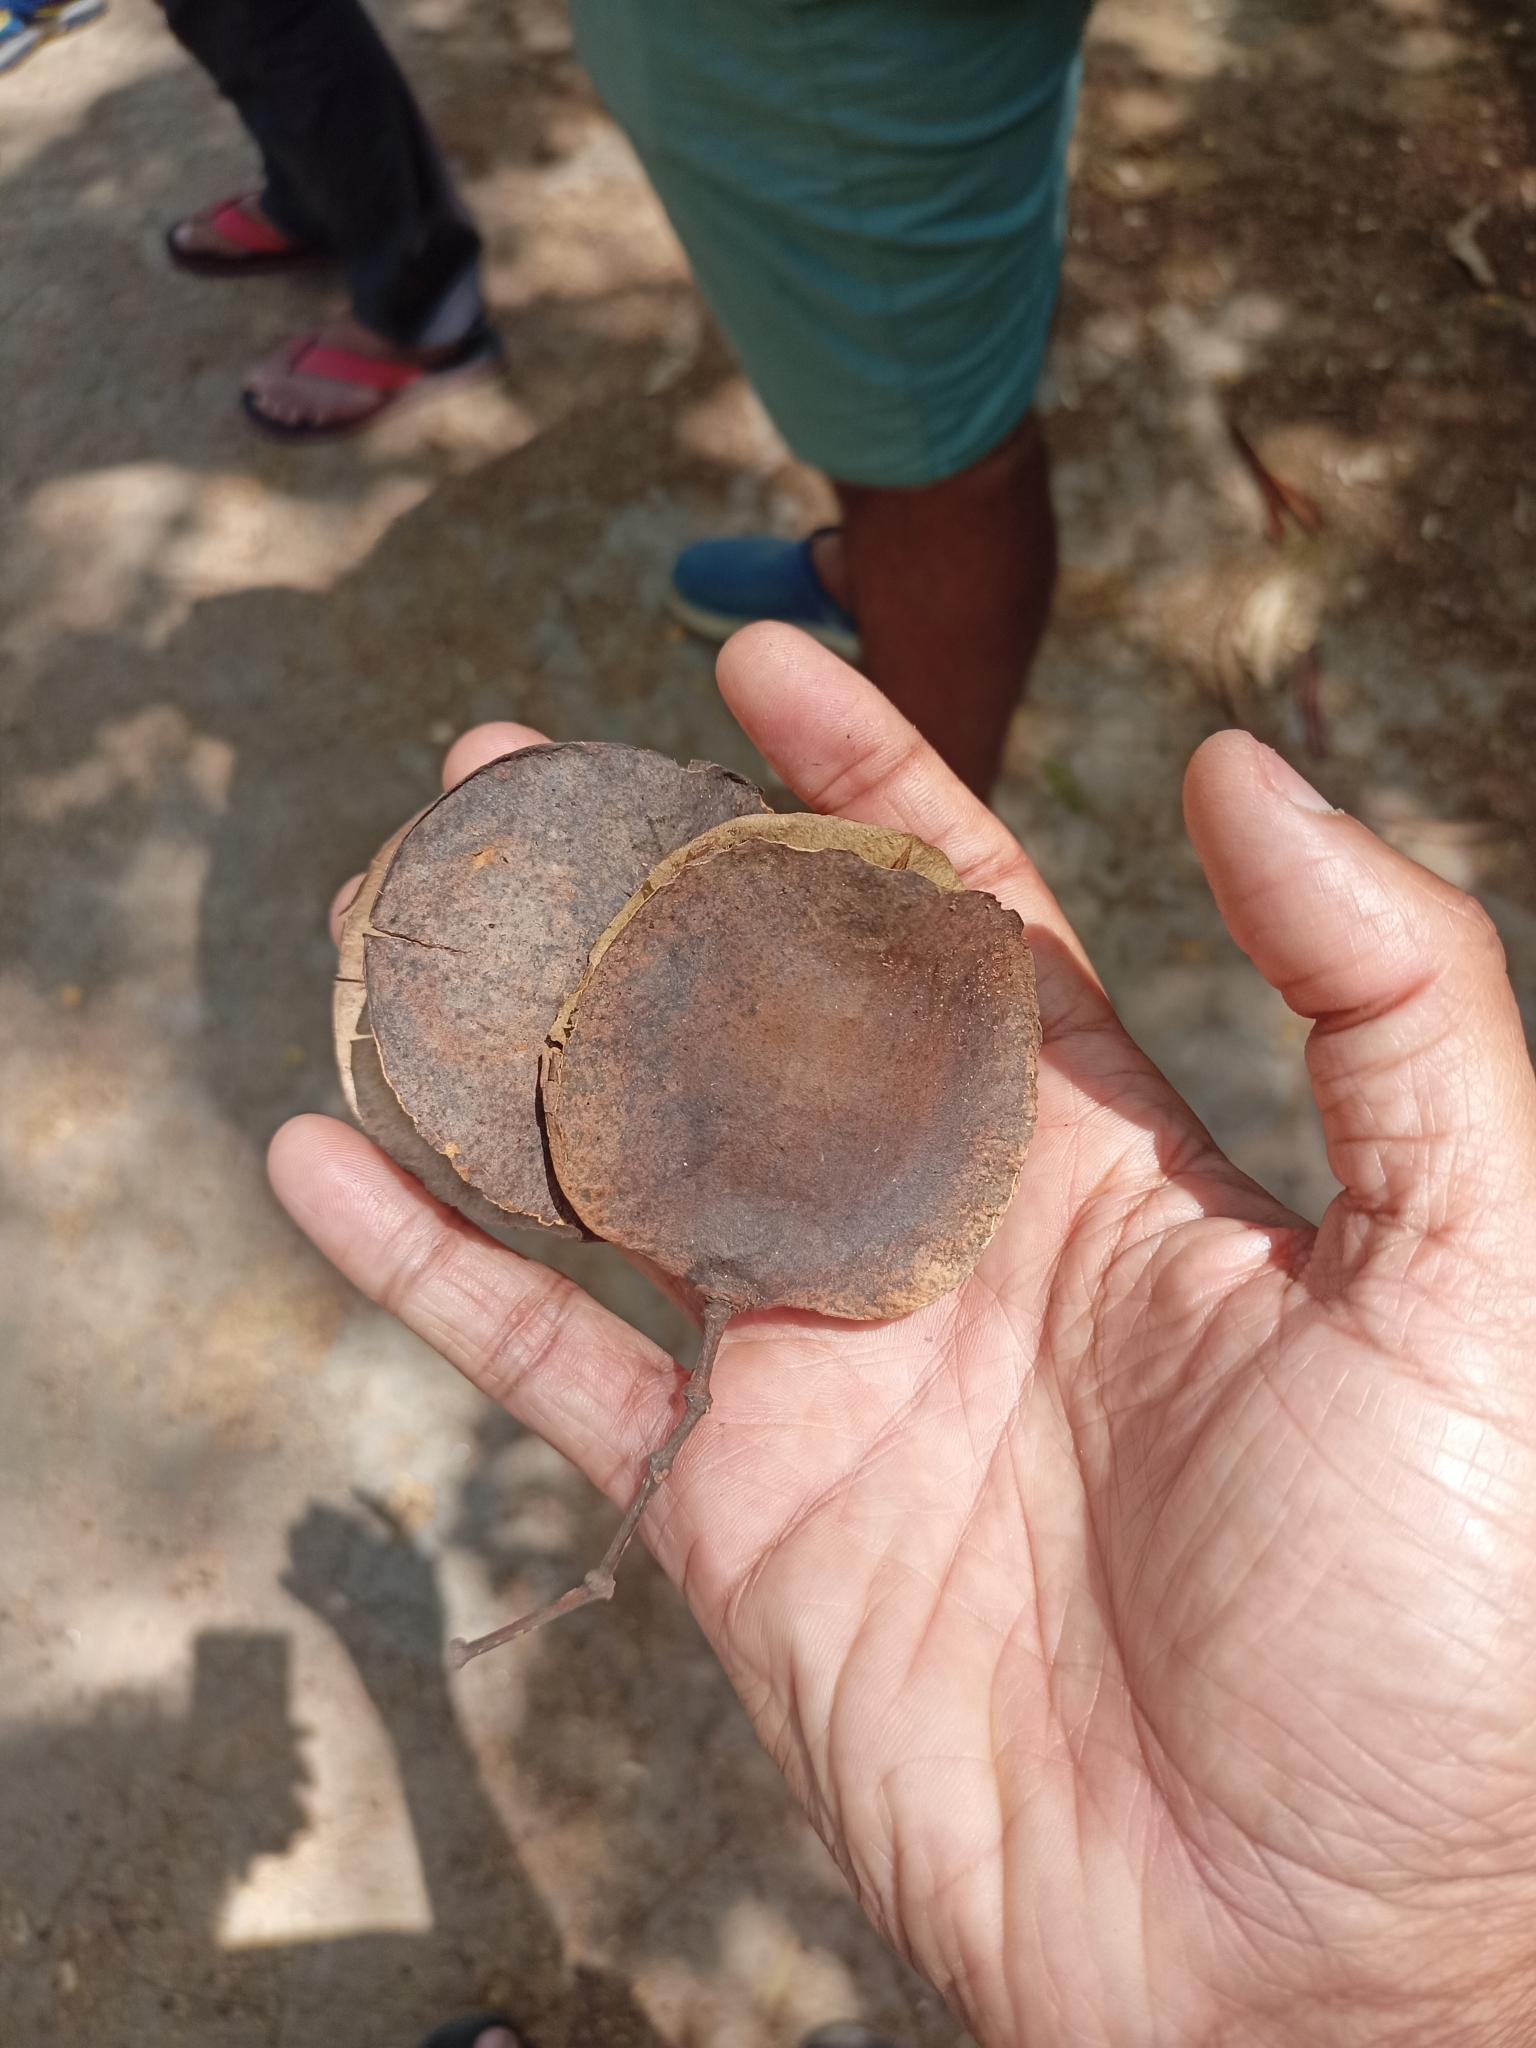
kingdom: Plantae
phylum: Tracheophyta
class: Magnoliopsida
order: Lamiales
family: Bignoniaceae
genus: Jacaranda
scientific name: Jacaranda mimosifolia
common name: Black poui
